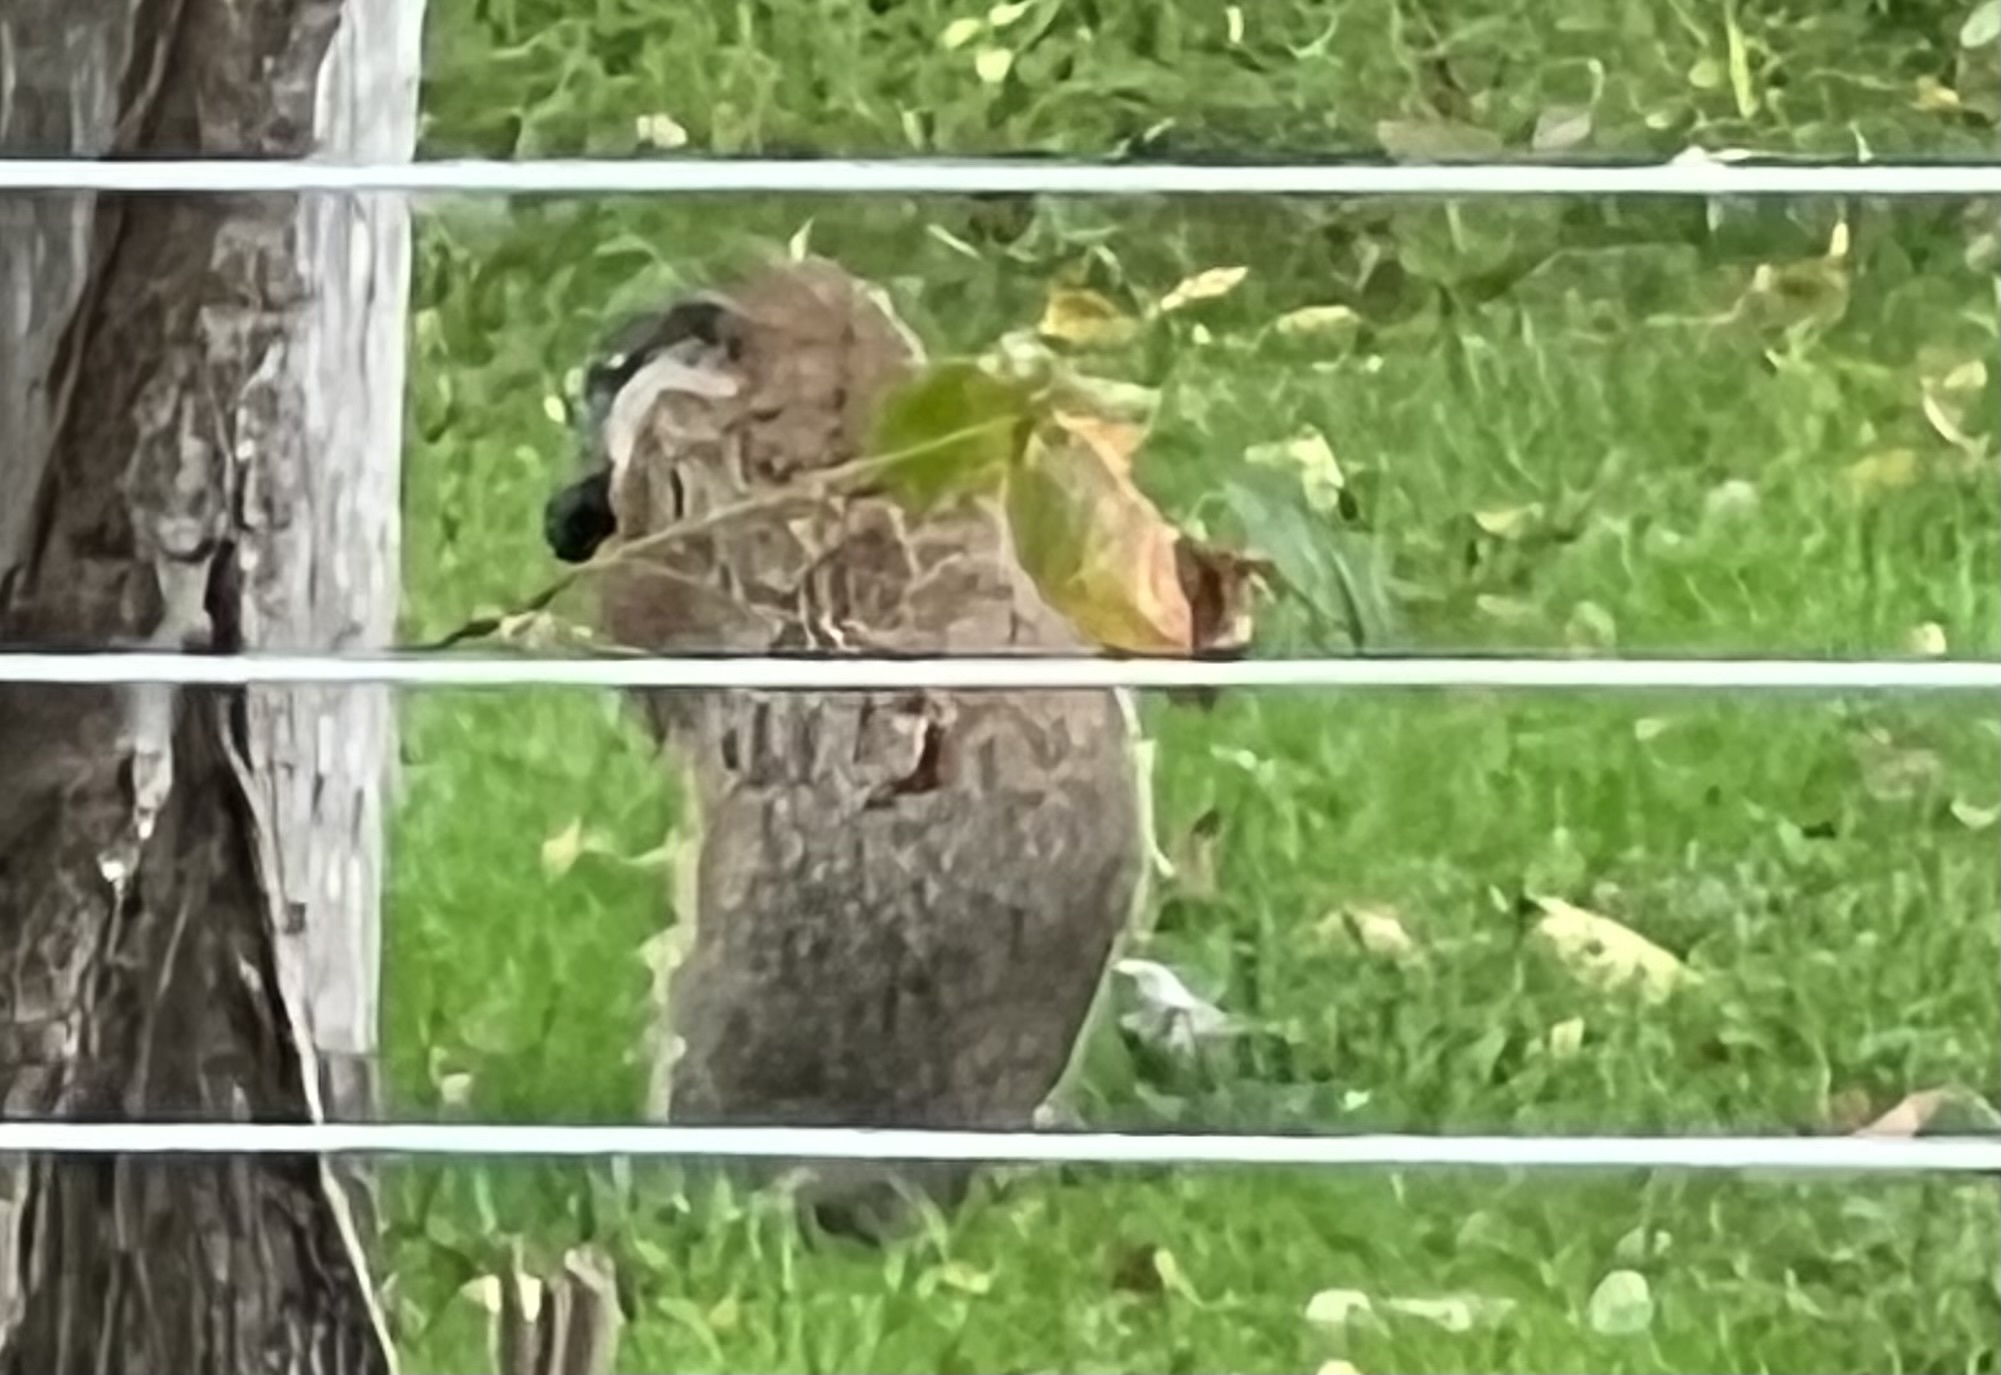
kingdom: Animalia
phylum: Chordata
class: Mammalia
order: Rodentia
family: Sciuridae
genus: Marmota
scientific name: Marmota monax
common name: Groundhog
